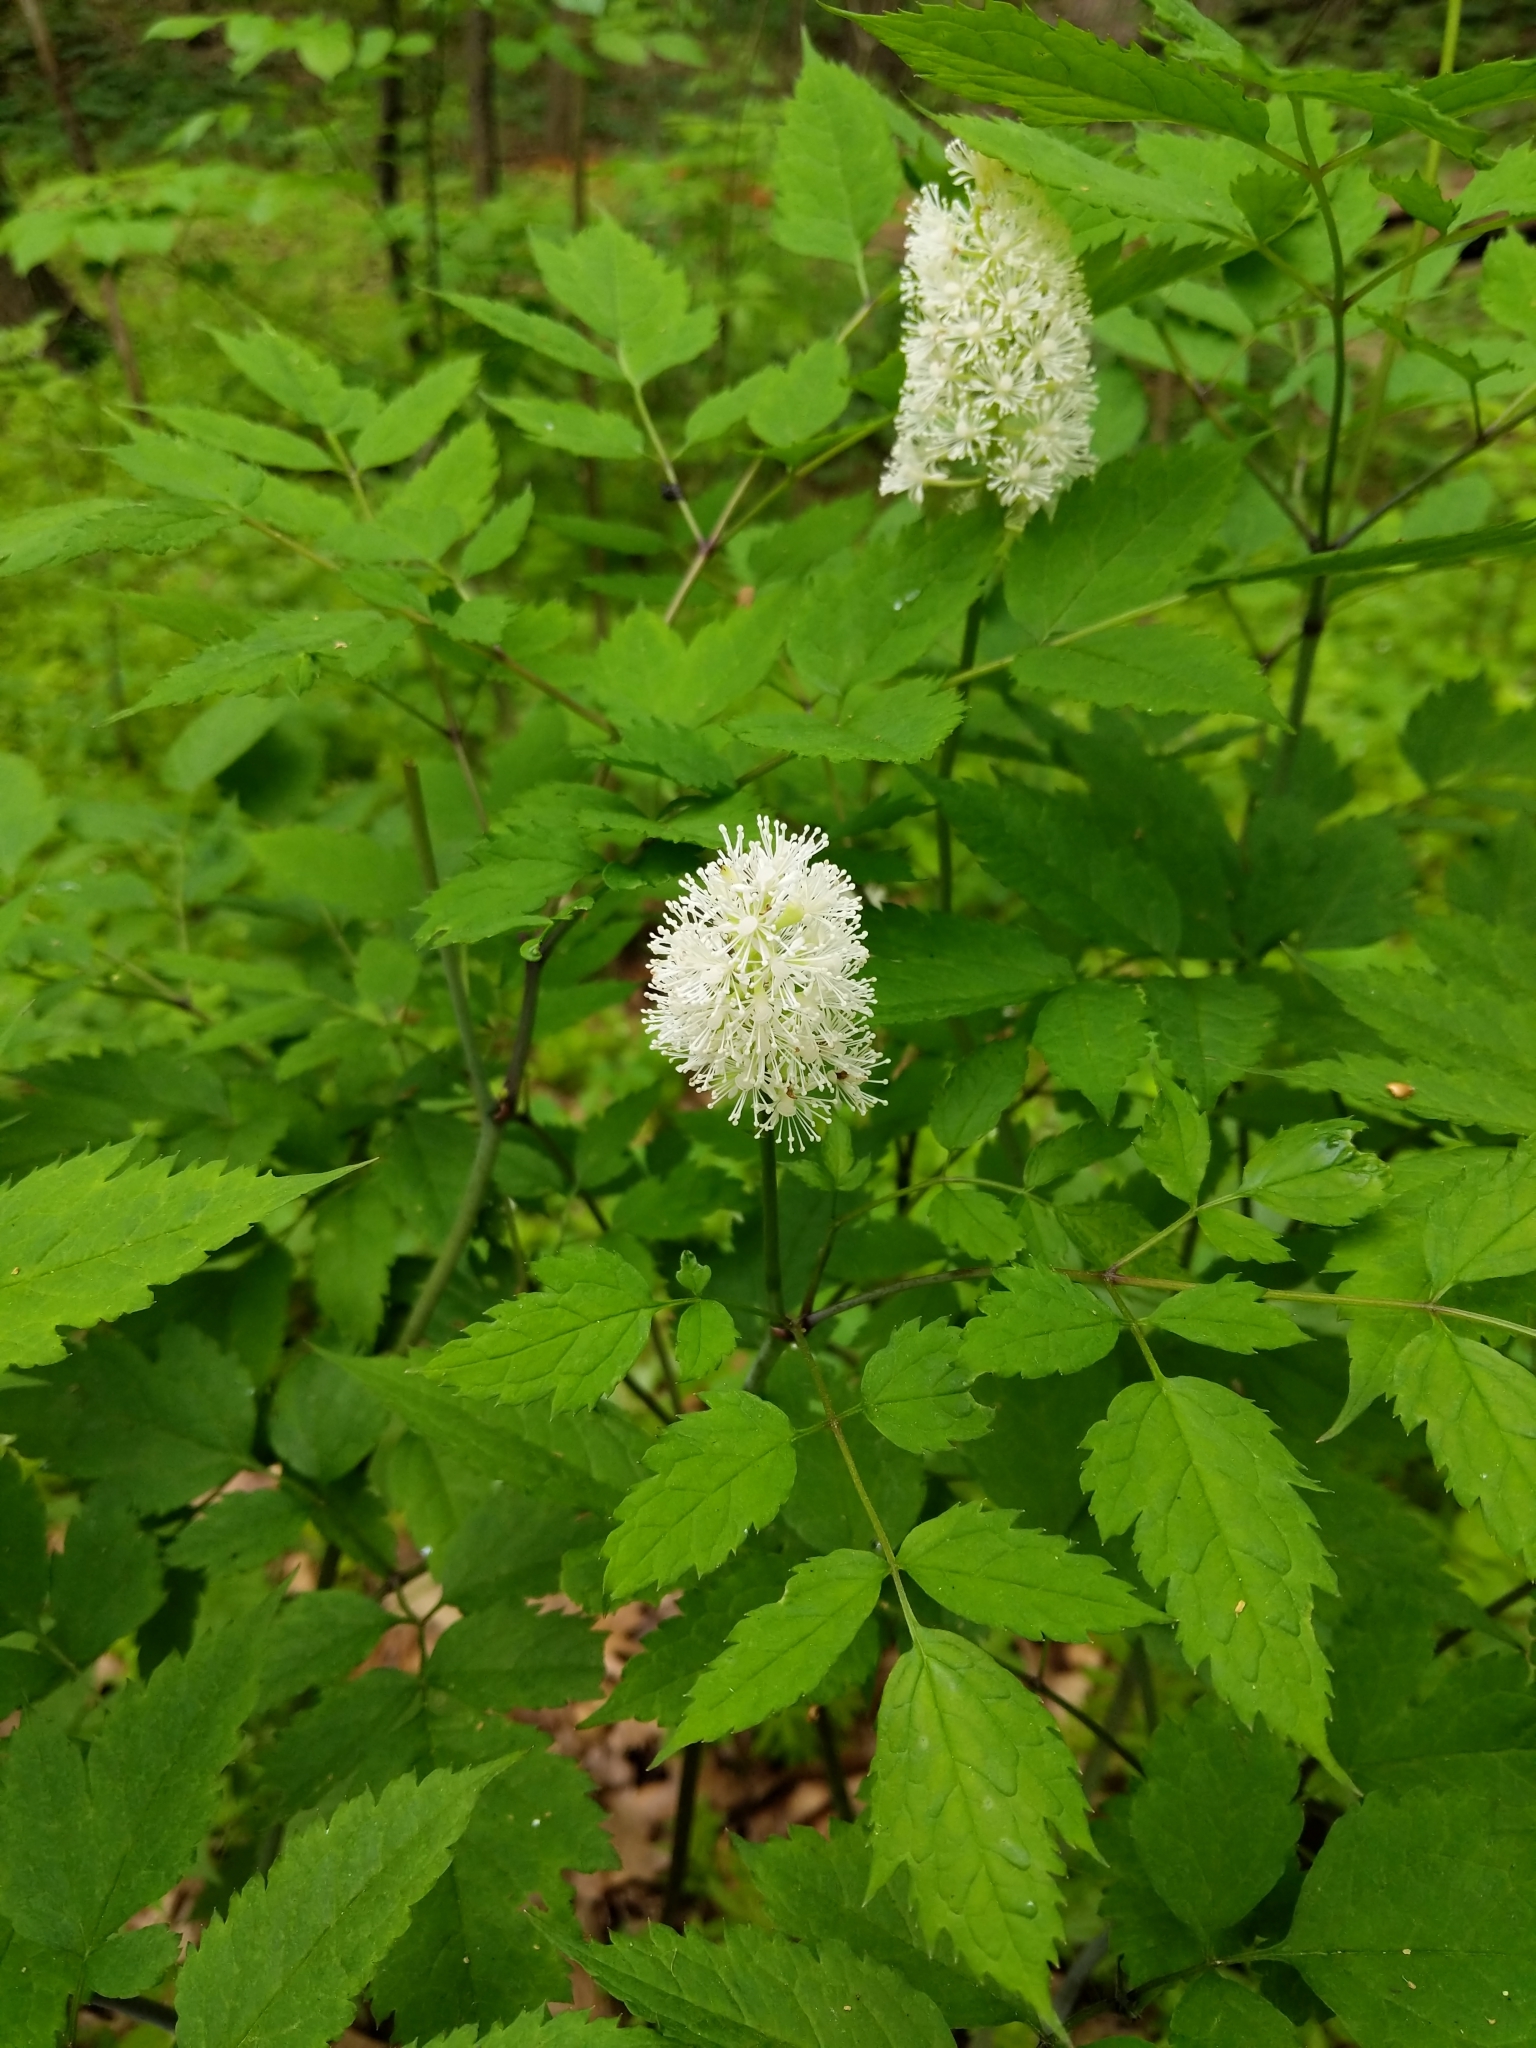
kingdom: Plantae
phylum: Tracheophyta
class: Magnoliopsida
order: Ranunculales
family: Ranunculaceae
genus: Actaea
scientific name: Actaea pachypoda
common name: Doll's-eyes
